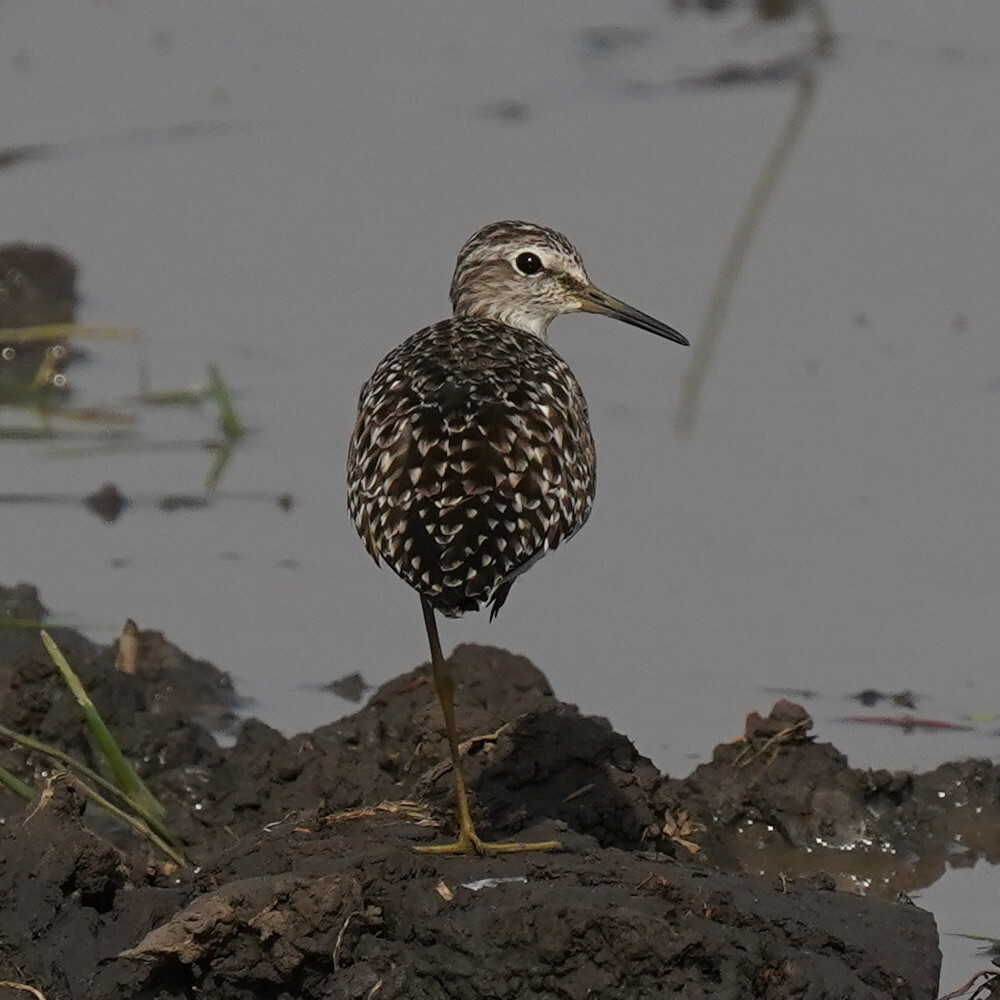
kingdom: Animalia
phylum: Chordata
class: Aves
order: Charadriiformes
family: Scolopacidae
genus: Tringa
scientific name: Tringa glareola
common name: Wood sandpiper
